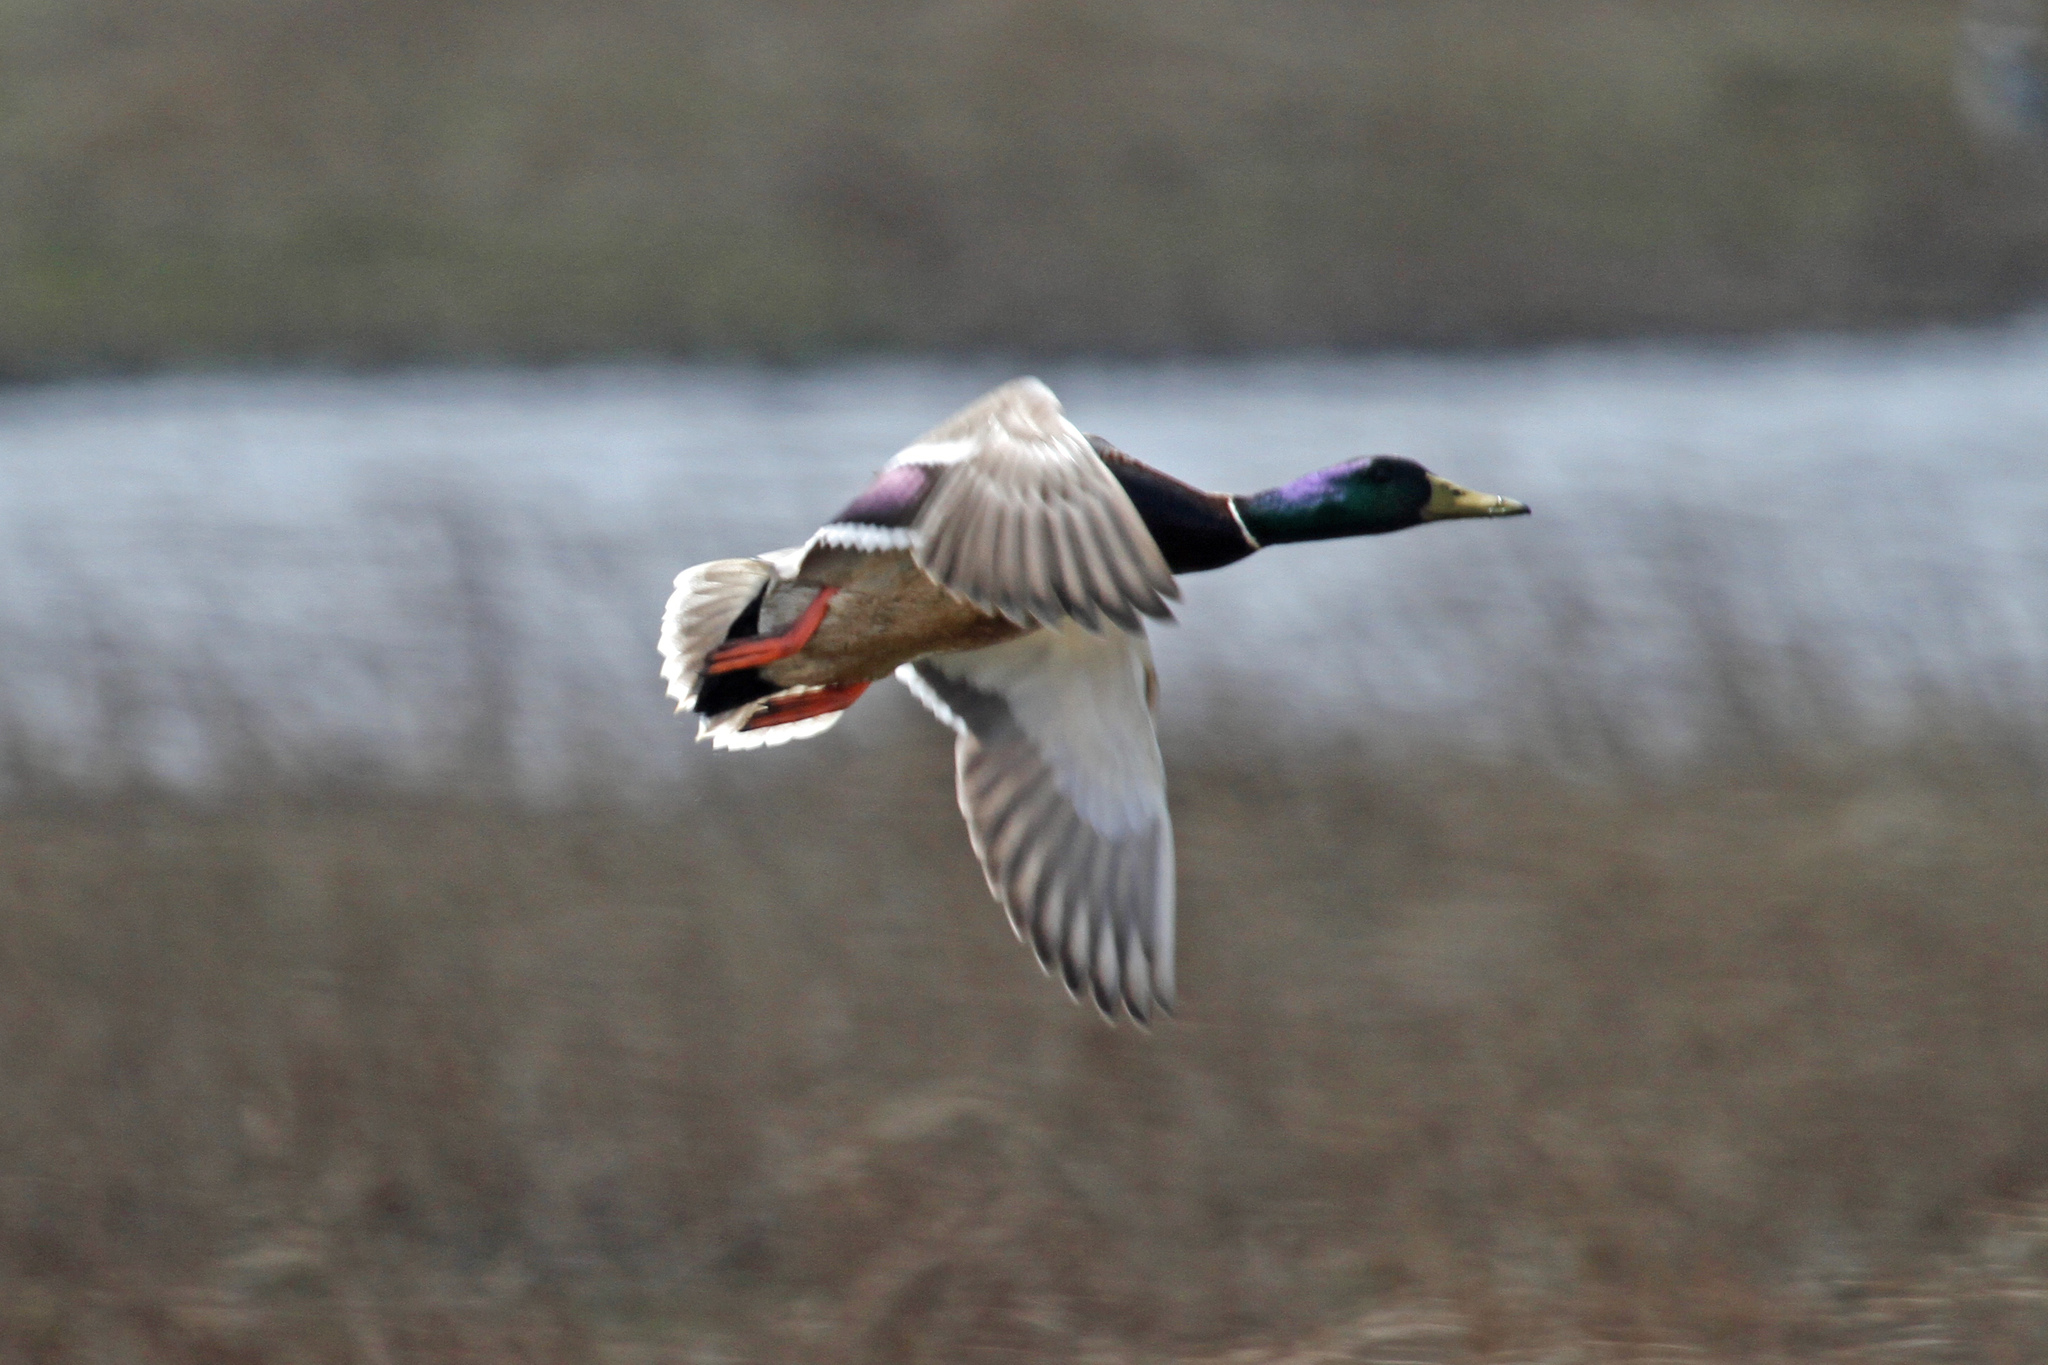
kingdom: Animalia
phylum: Chordata
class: Aves
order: Anseriformes
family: Anatidae
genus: Anas
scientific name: Anas platyrhynchos
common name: Mallard
